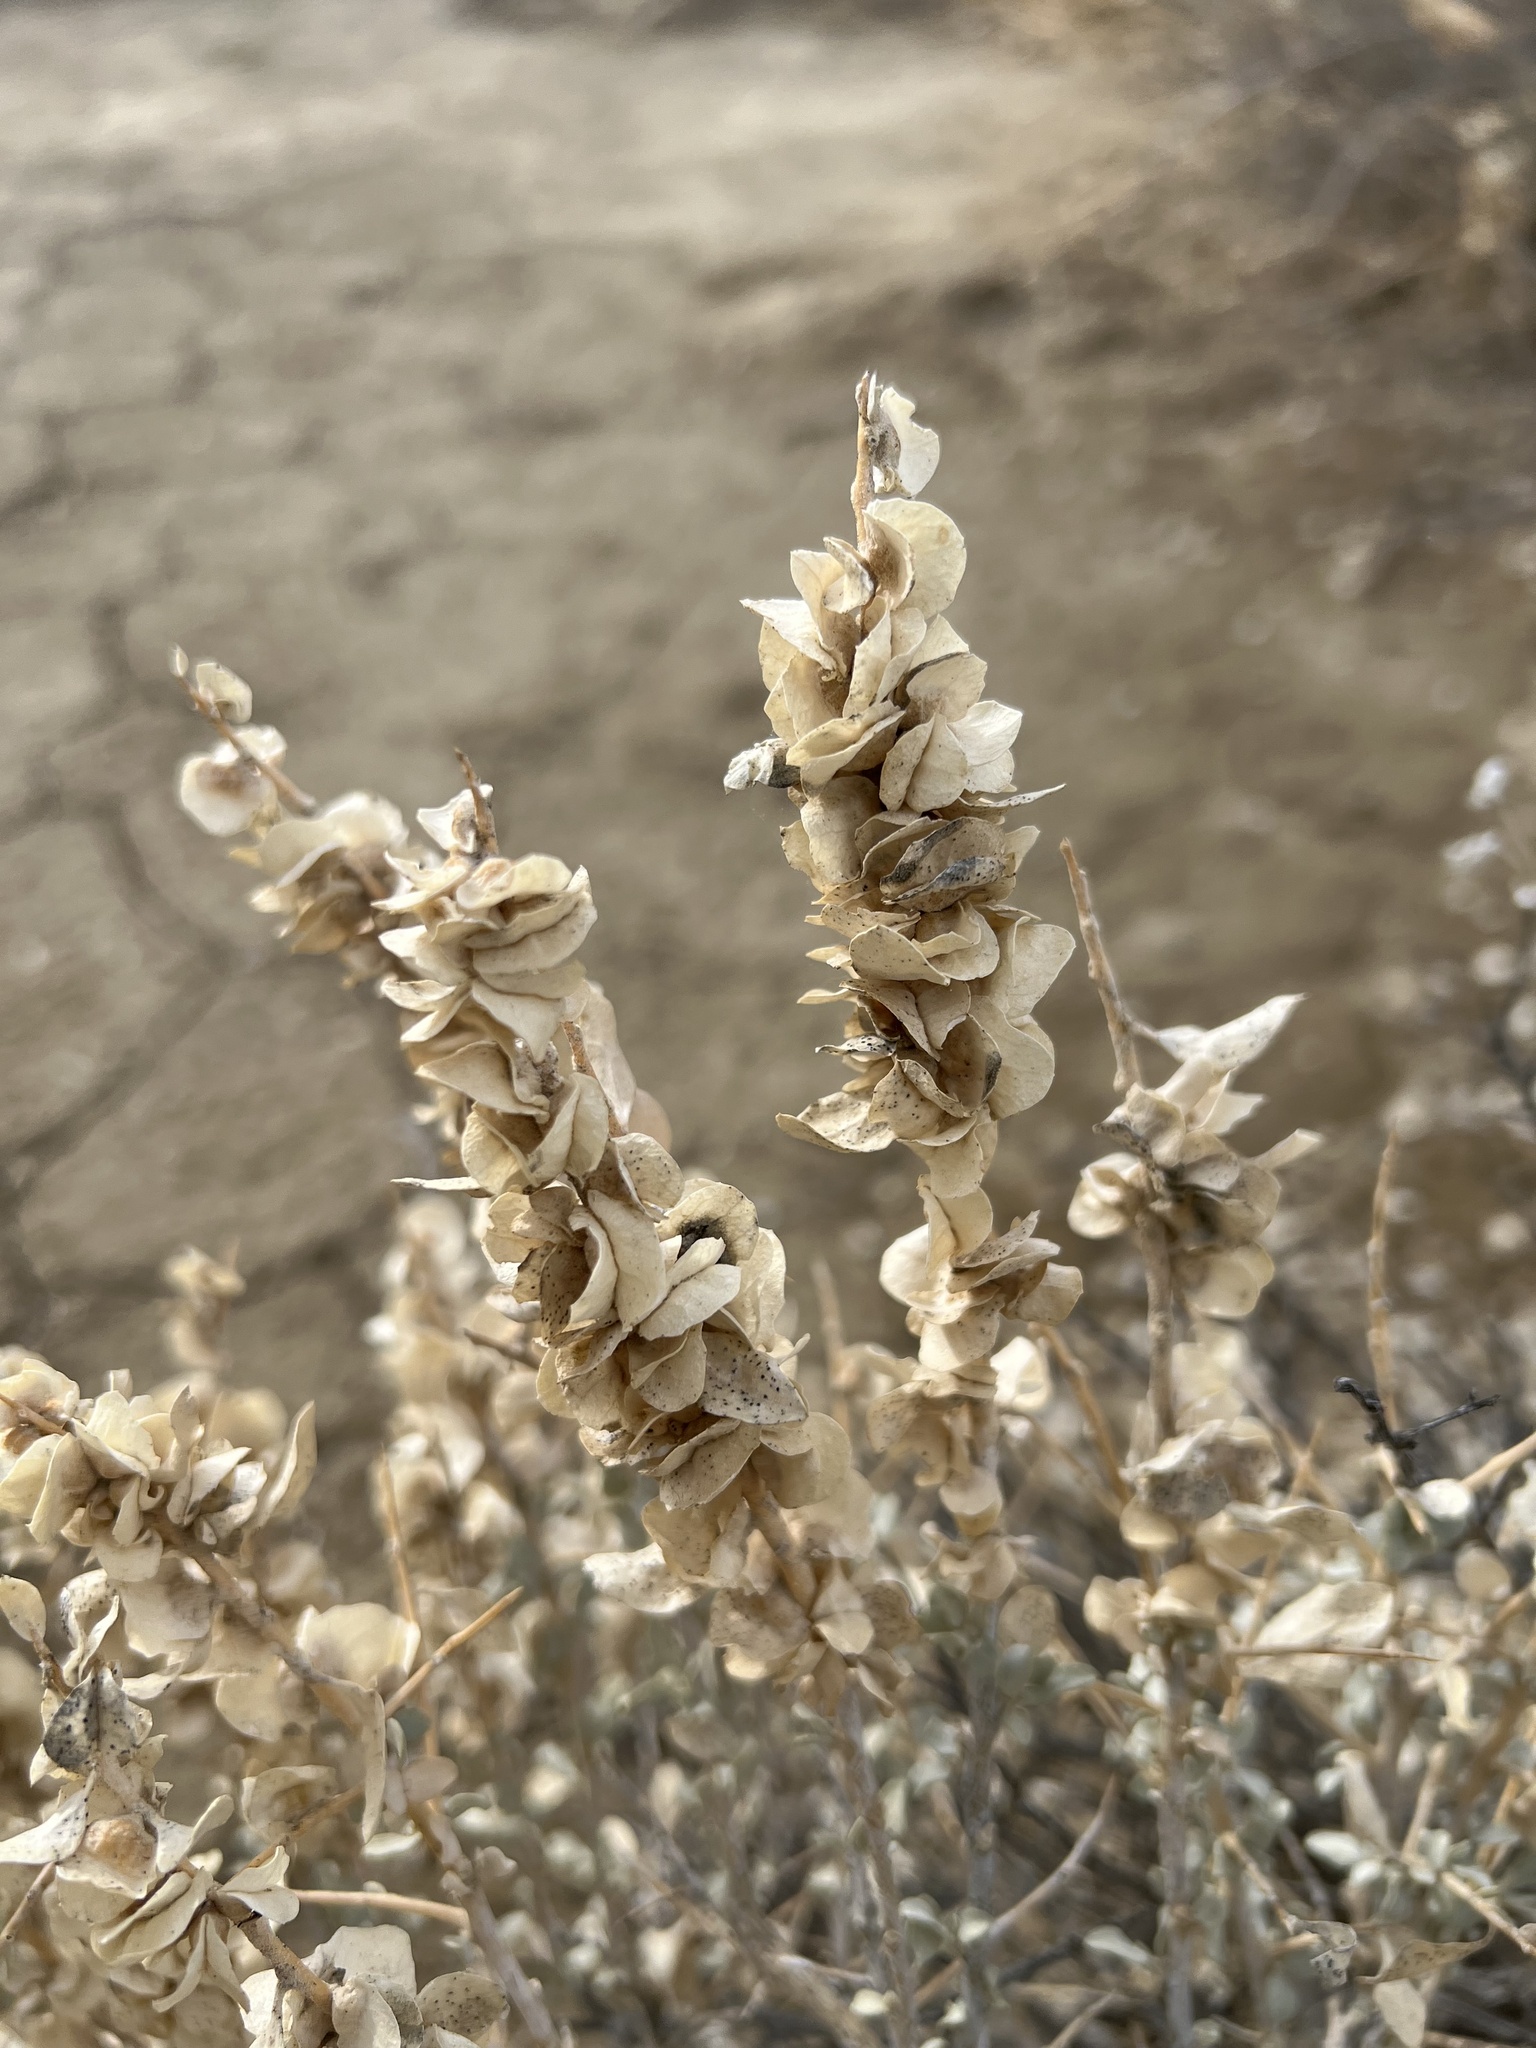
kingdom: Plantae
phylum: Tracheophyta
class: Magnoliopsida
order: Caryophyllales
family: Amaranthaceae
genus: Atriplex
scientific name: Atriplex confertifolia
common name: Shadscale
